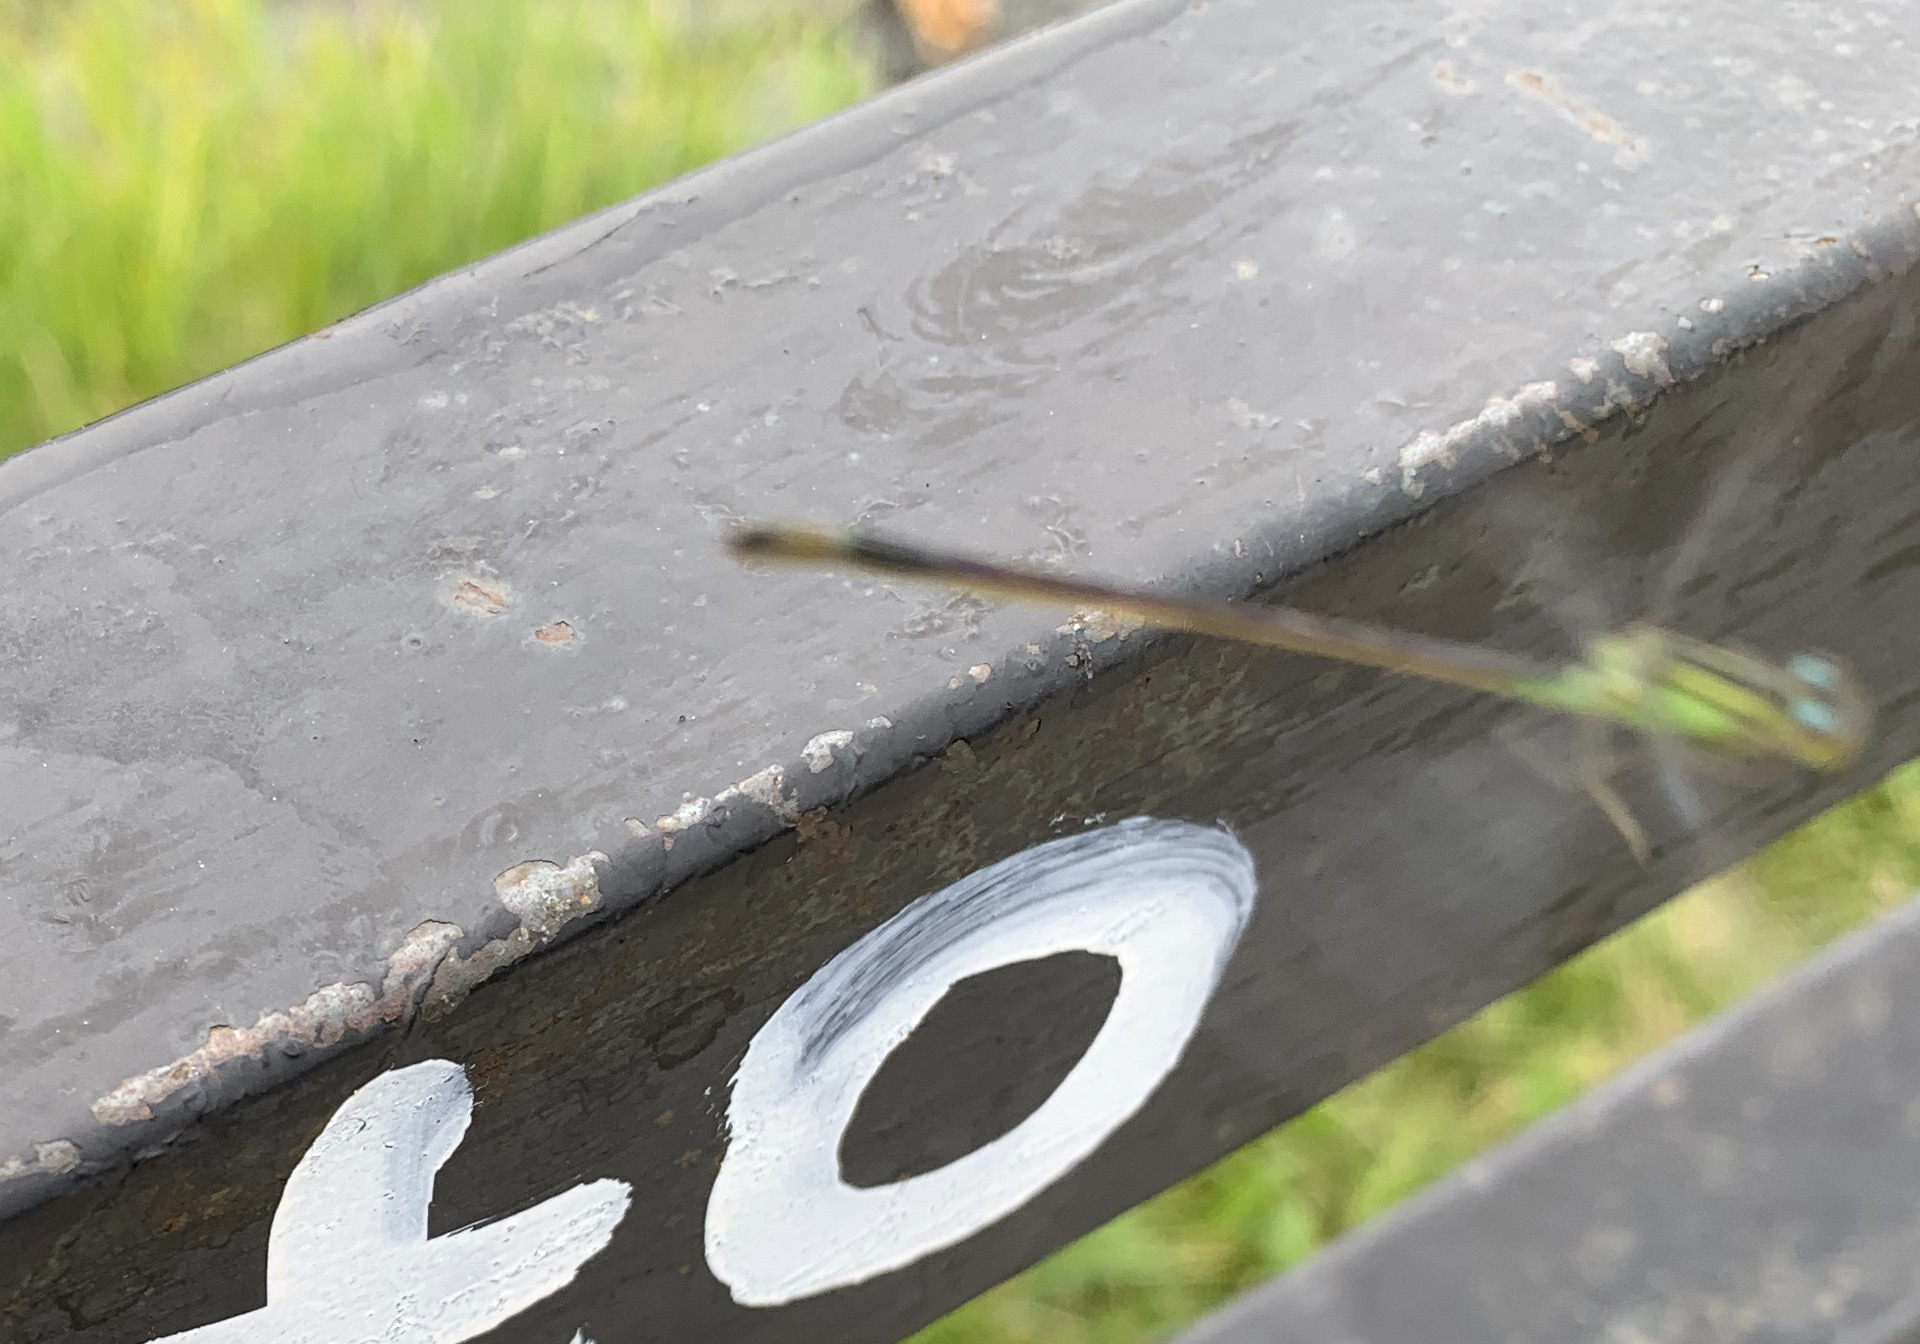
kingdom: Animalia
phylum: Arthropoda
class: Insecta
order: Odonata
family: Coenagrionidae
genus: Ischnura
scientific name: Ischnura elegans
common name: Blue-tailed damselfly
